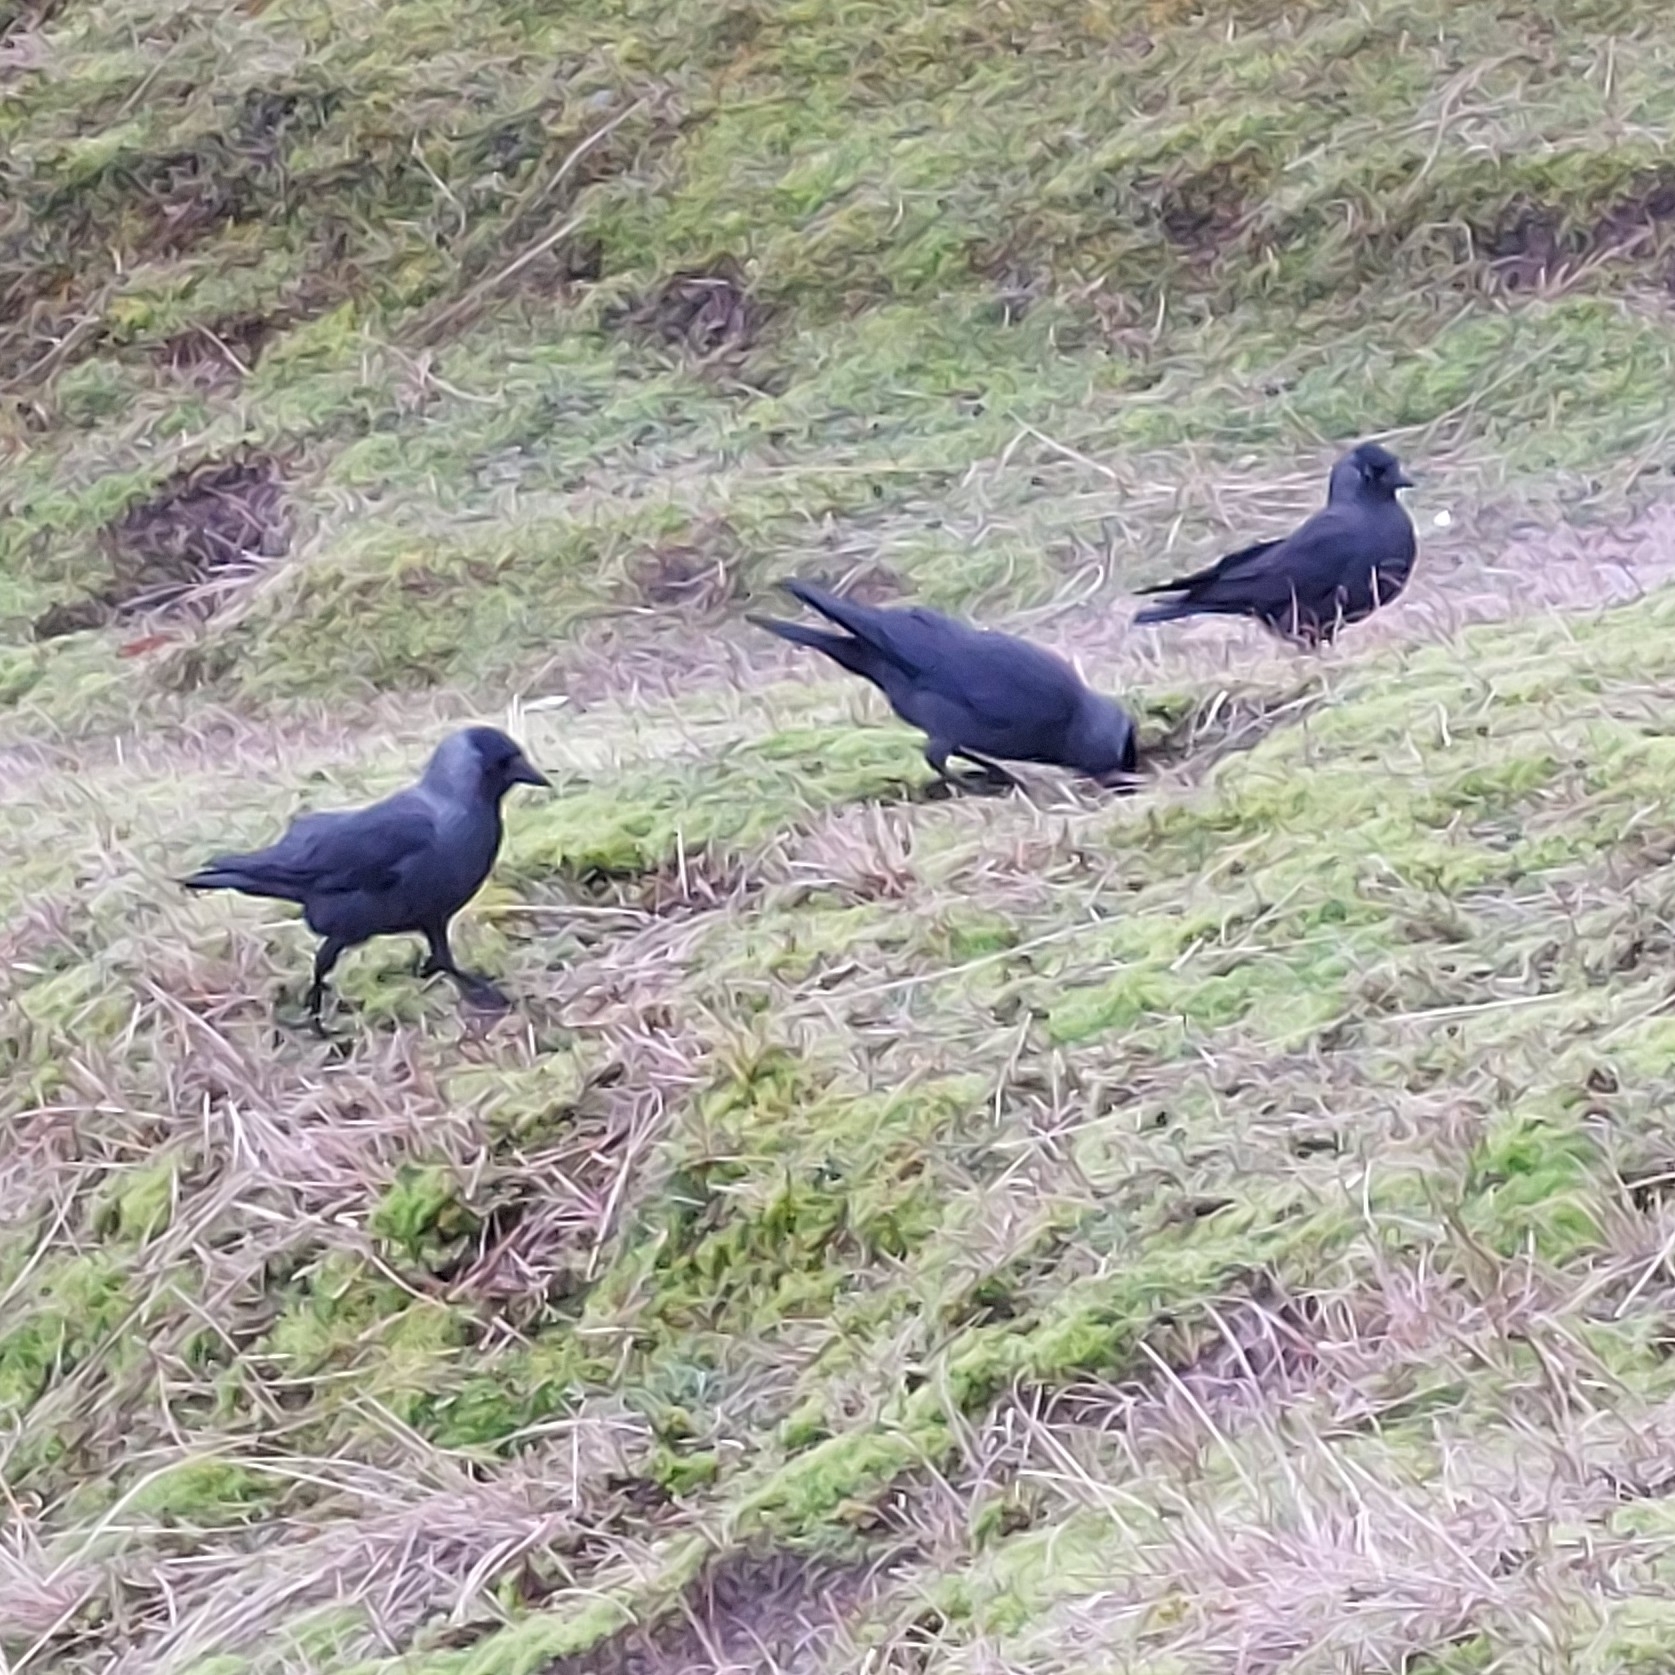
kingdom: Animalia
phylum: Chordata
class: Aves
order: Passeriformes
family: Corvidae
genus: Coloeus
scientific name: Coloeus monedula
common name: Western jackdaw
